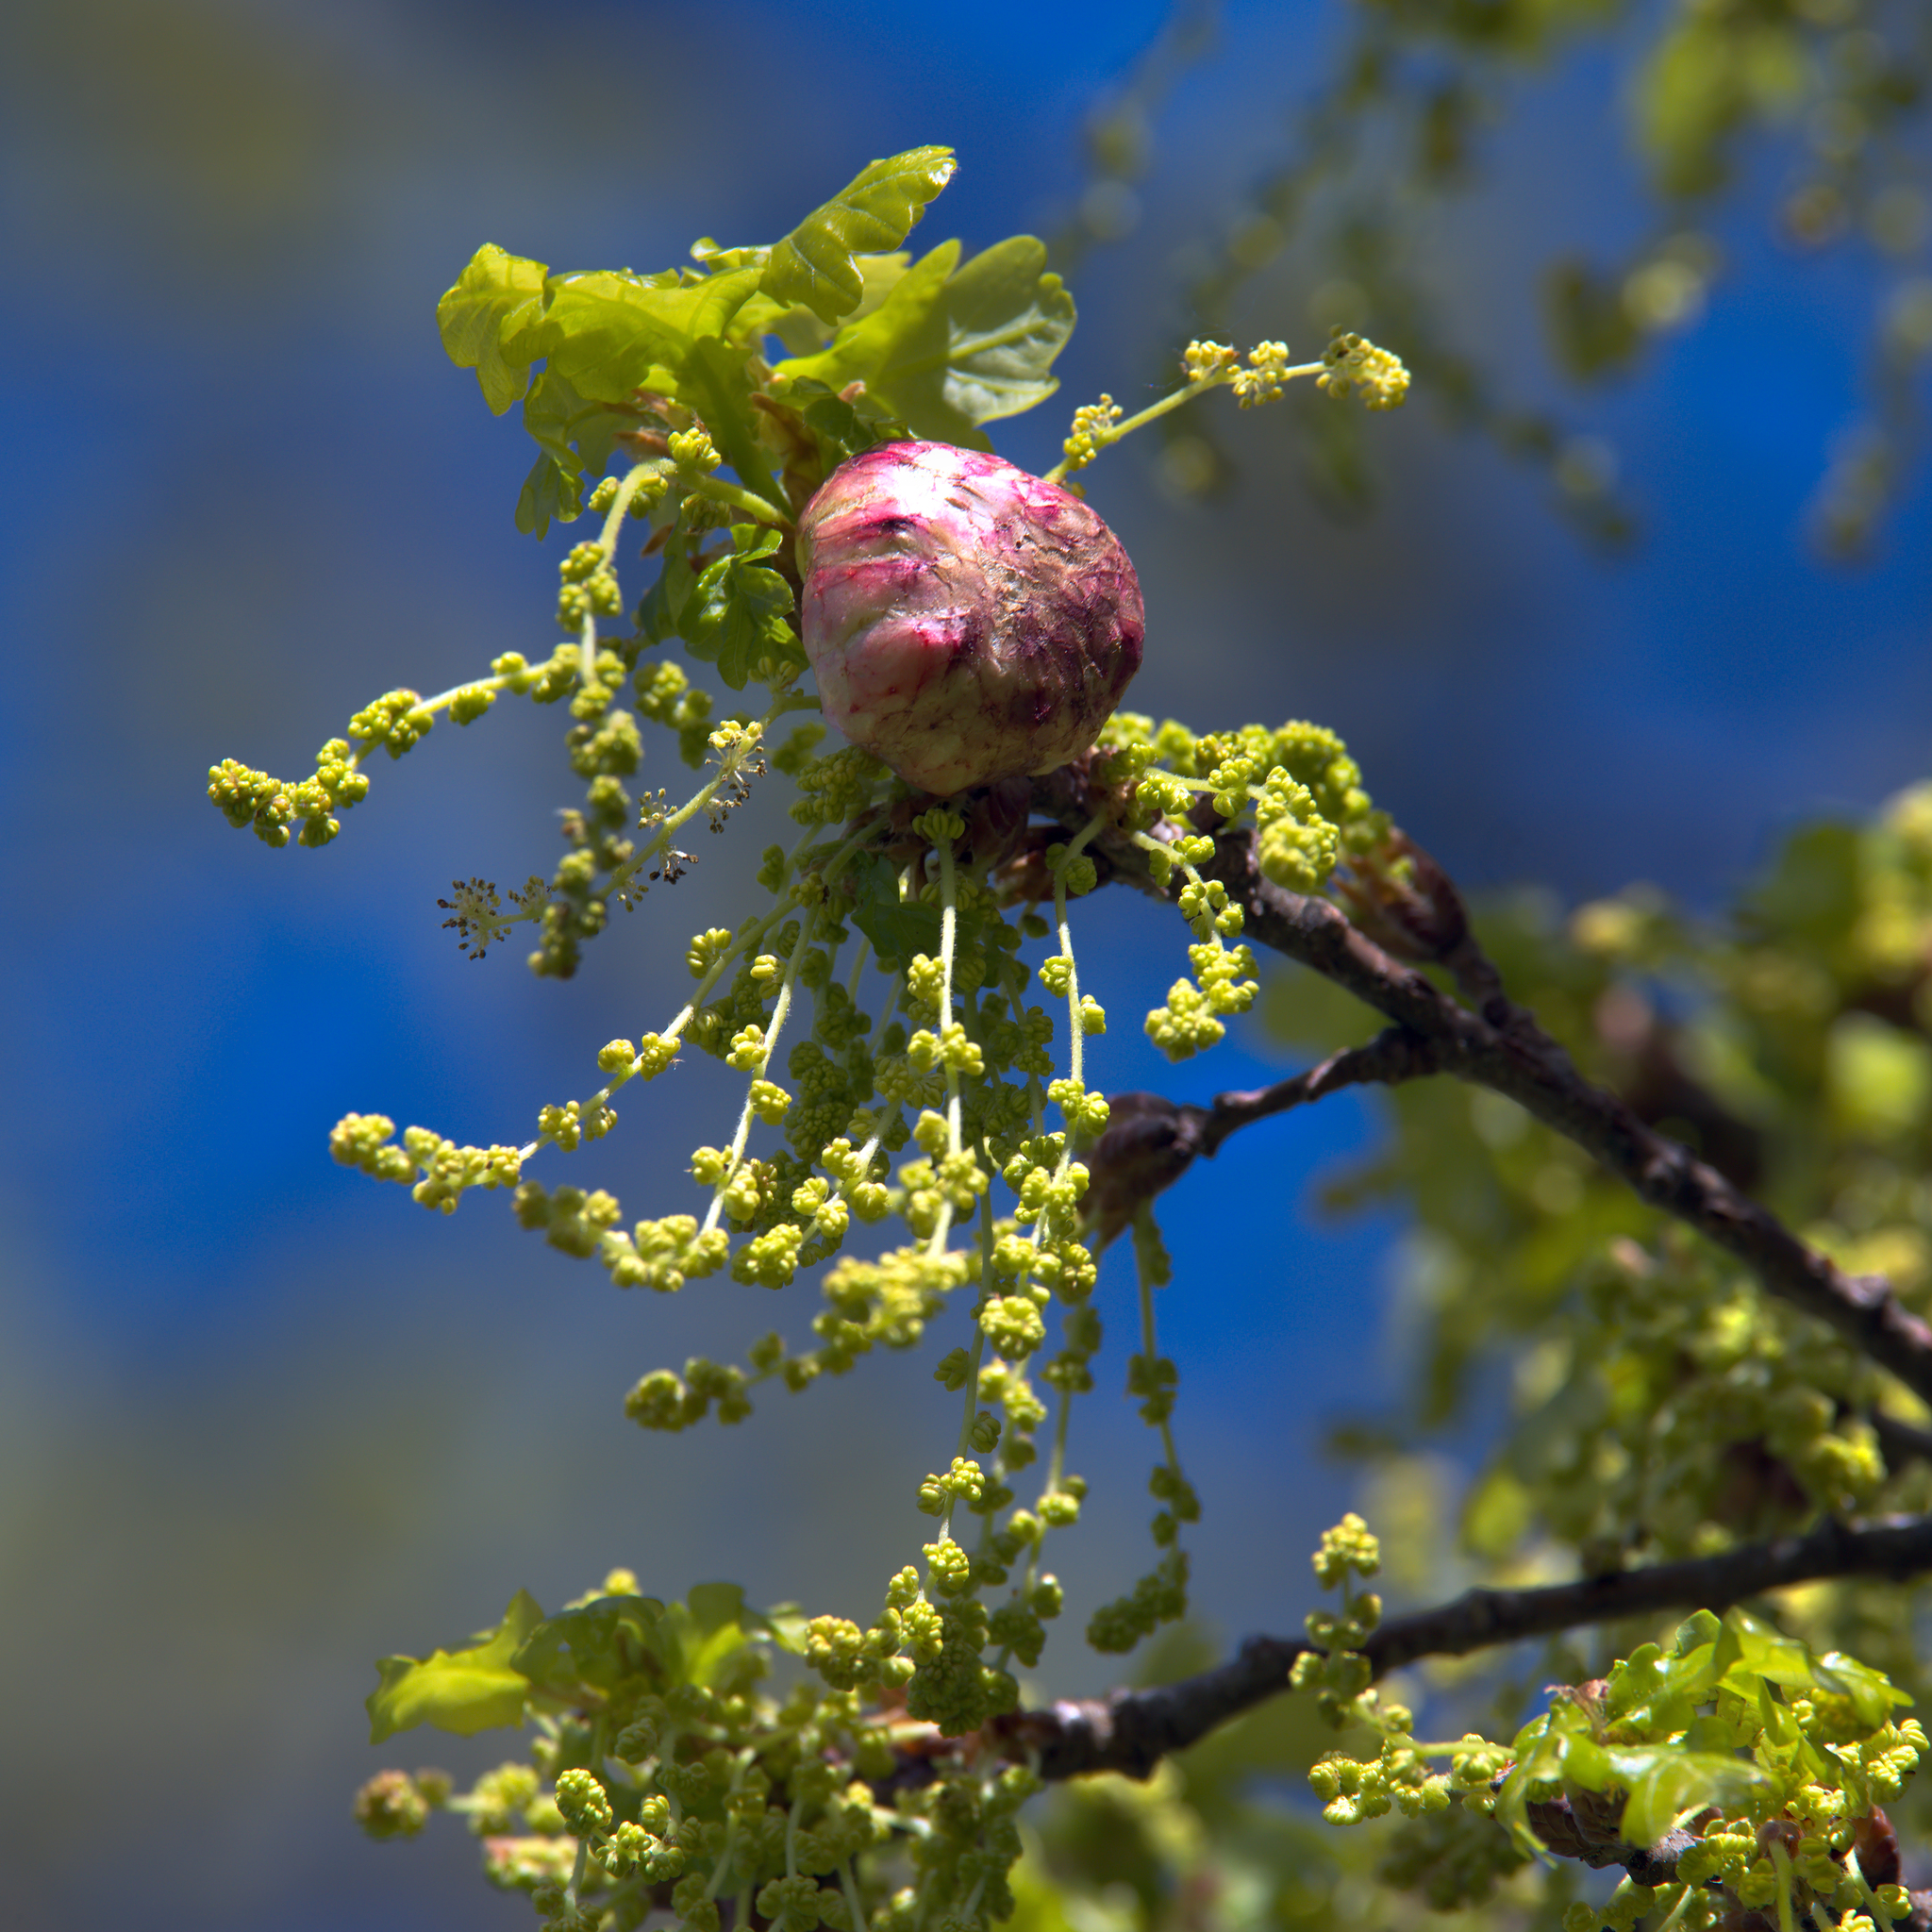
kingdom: Plantae
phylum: Tracheophyta
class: Magnoliopsida
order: Fagales
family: Fagaceae
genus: Quercus
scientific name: Quercus robur
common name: Pedunculate oak
